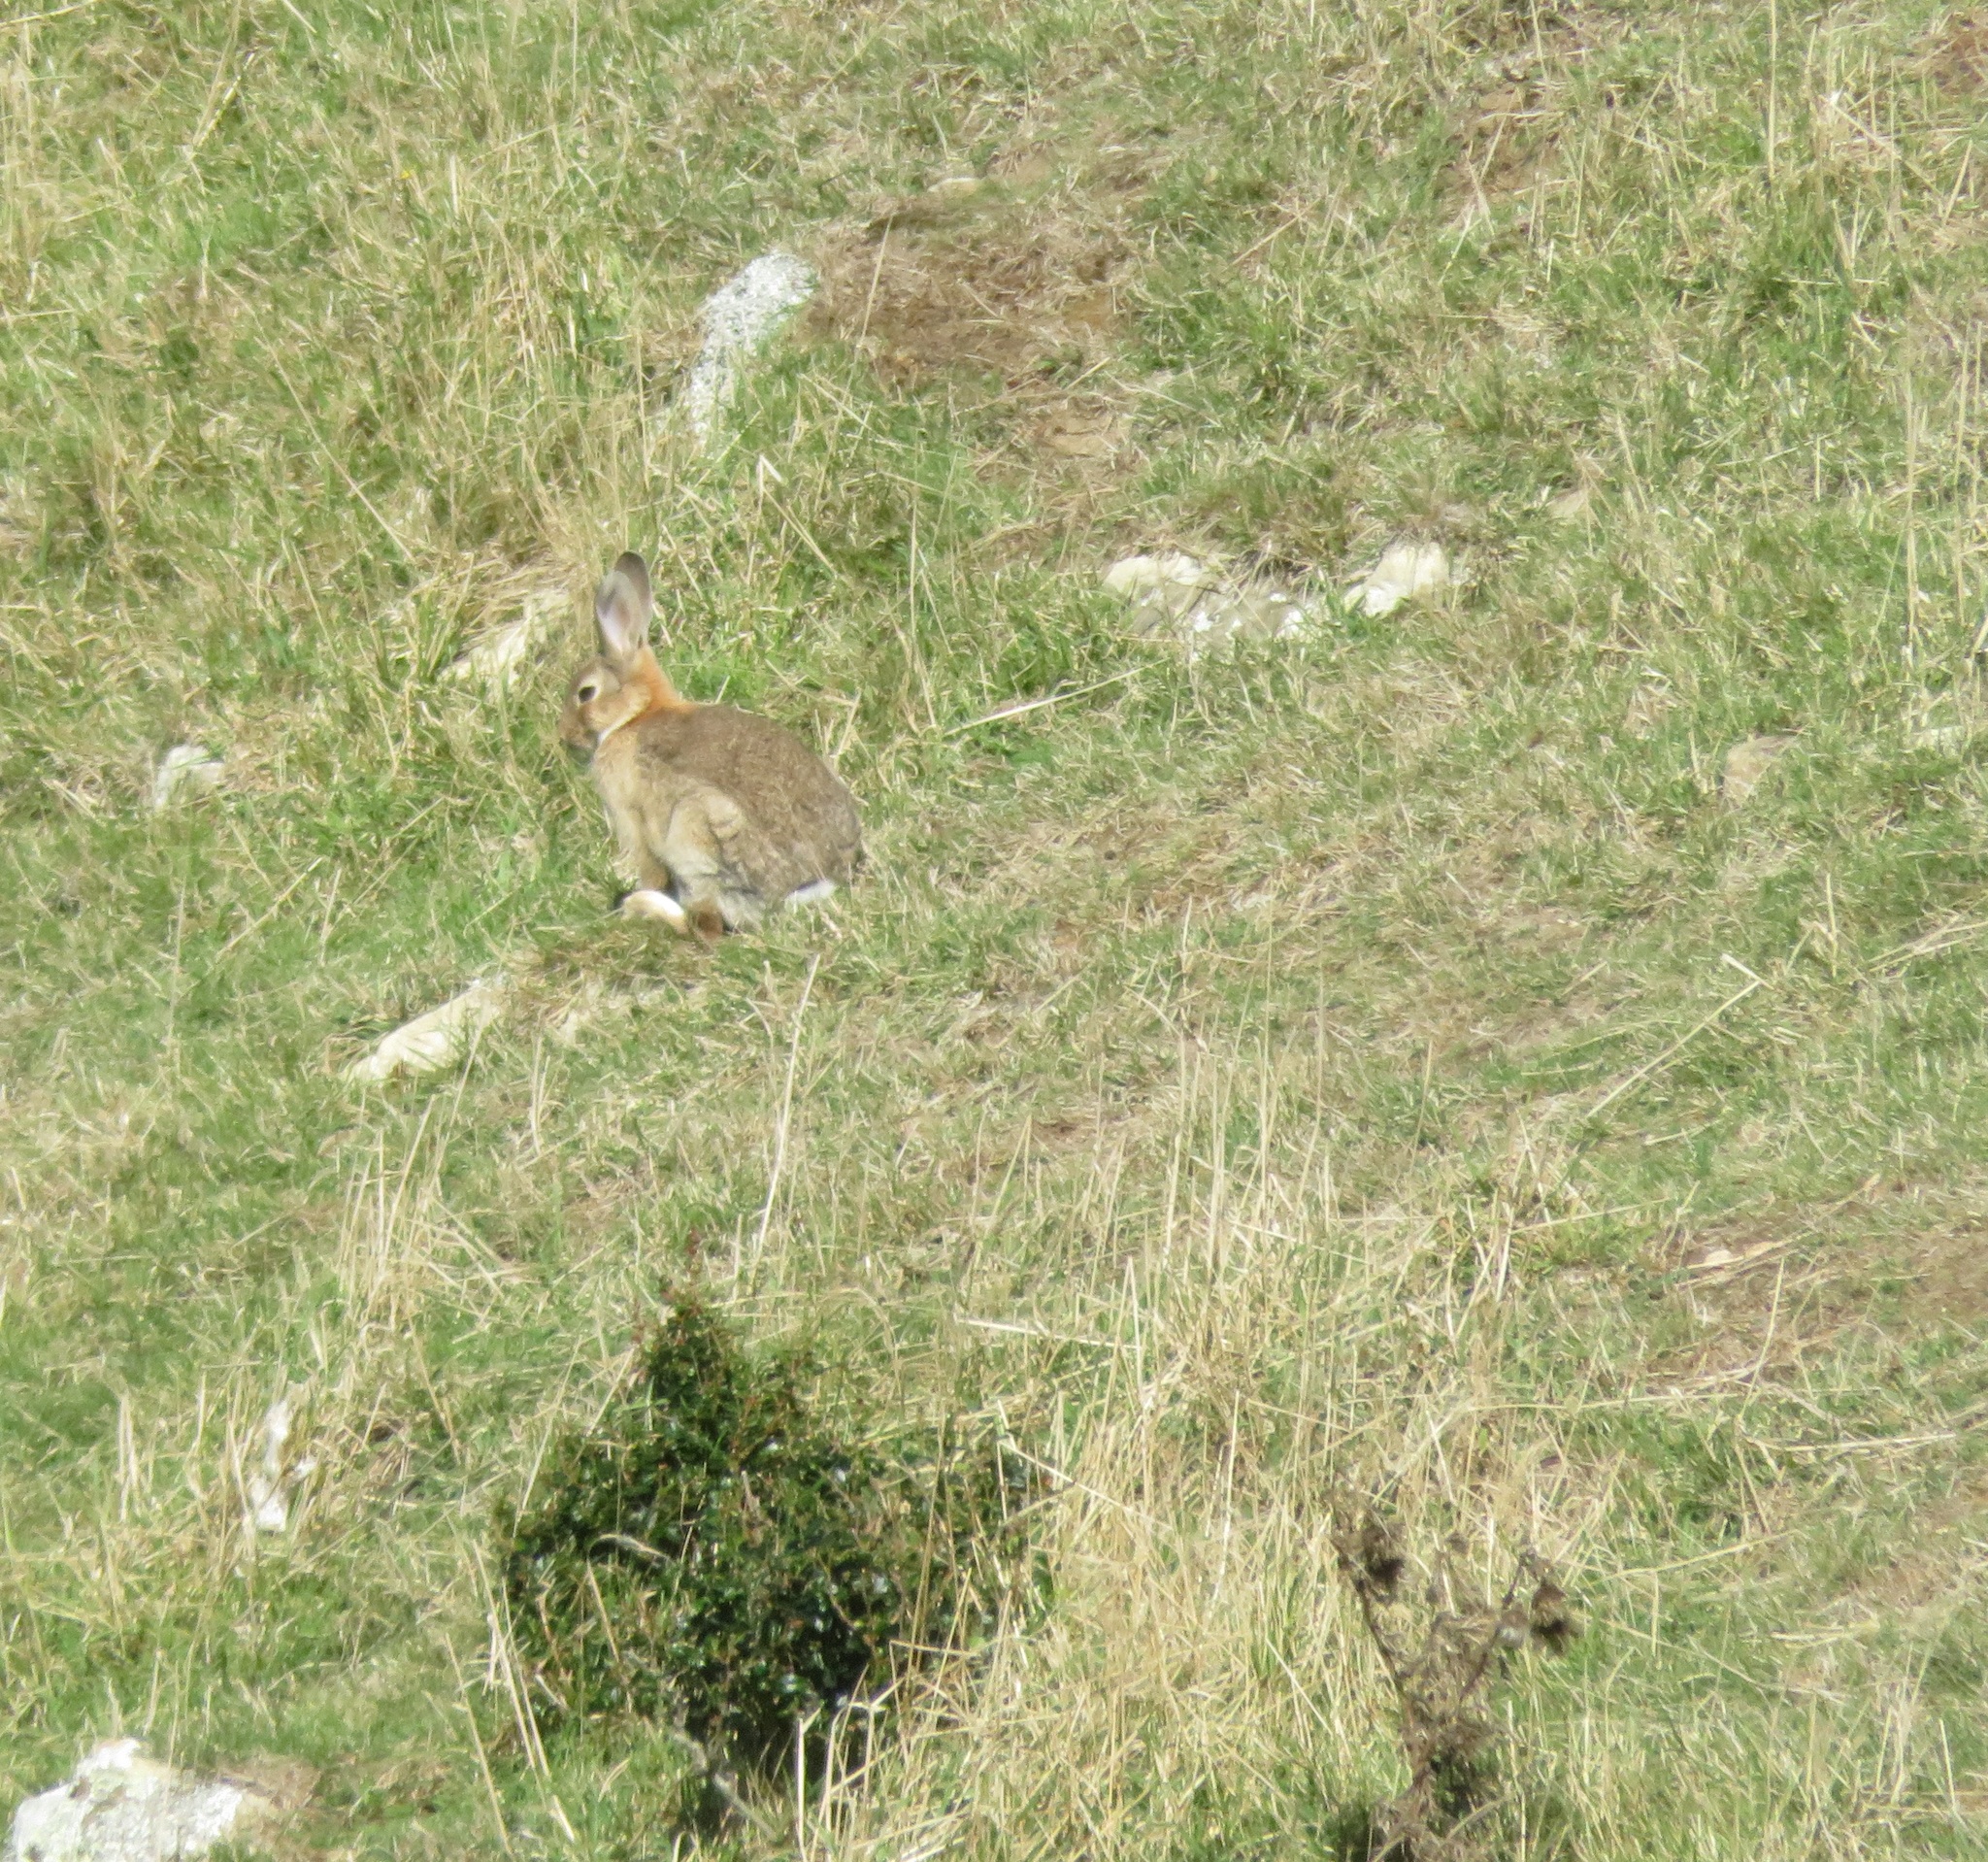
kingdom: Animalia
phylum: Chordata
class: Mammalia
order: Lagomorpha
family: Leporidae
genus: Oryctolagus
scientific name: Oryctolagus cuniculus
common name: European rabbit
